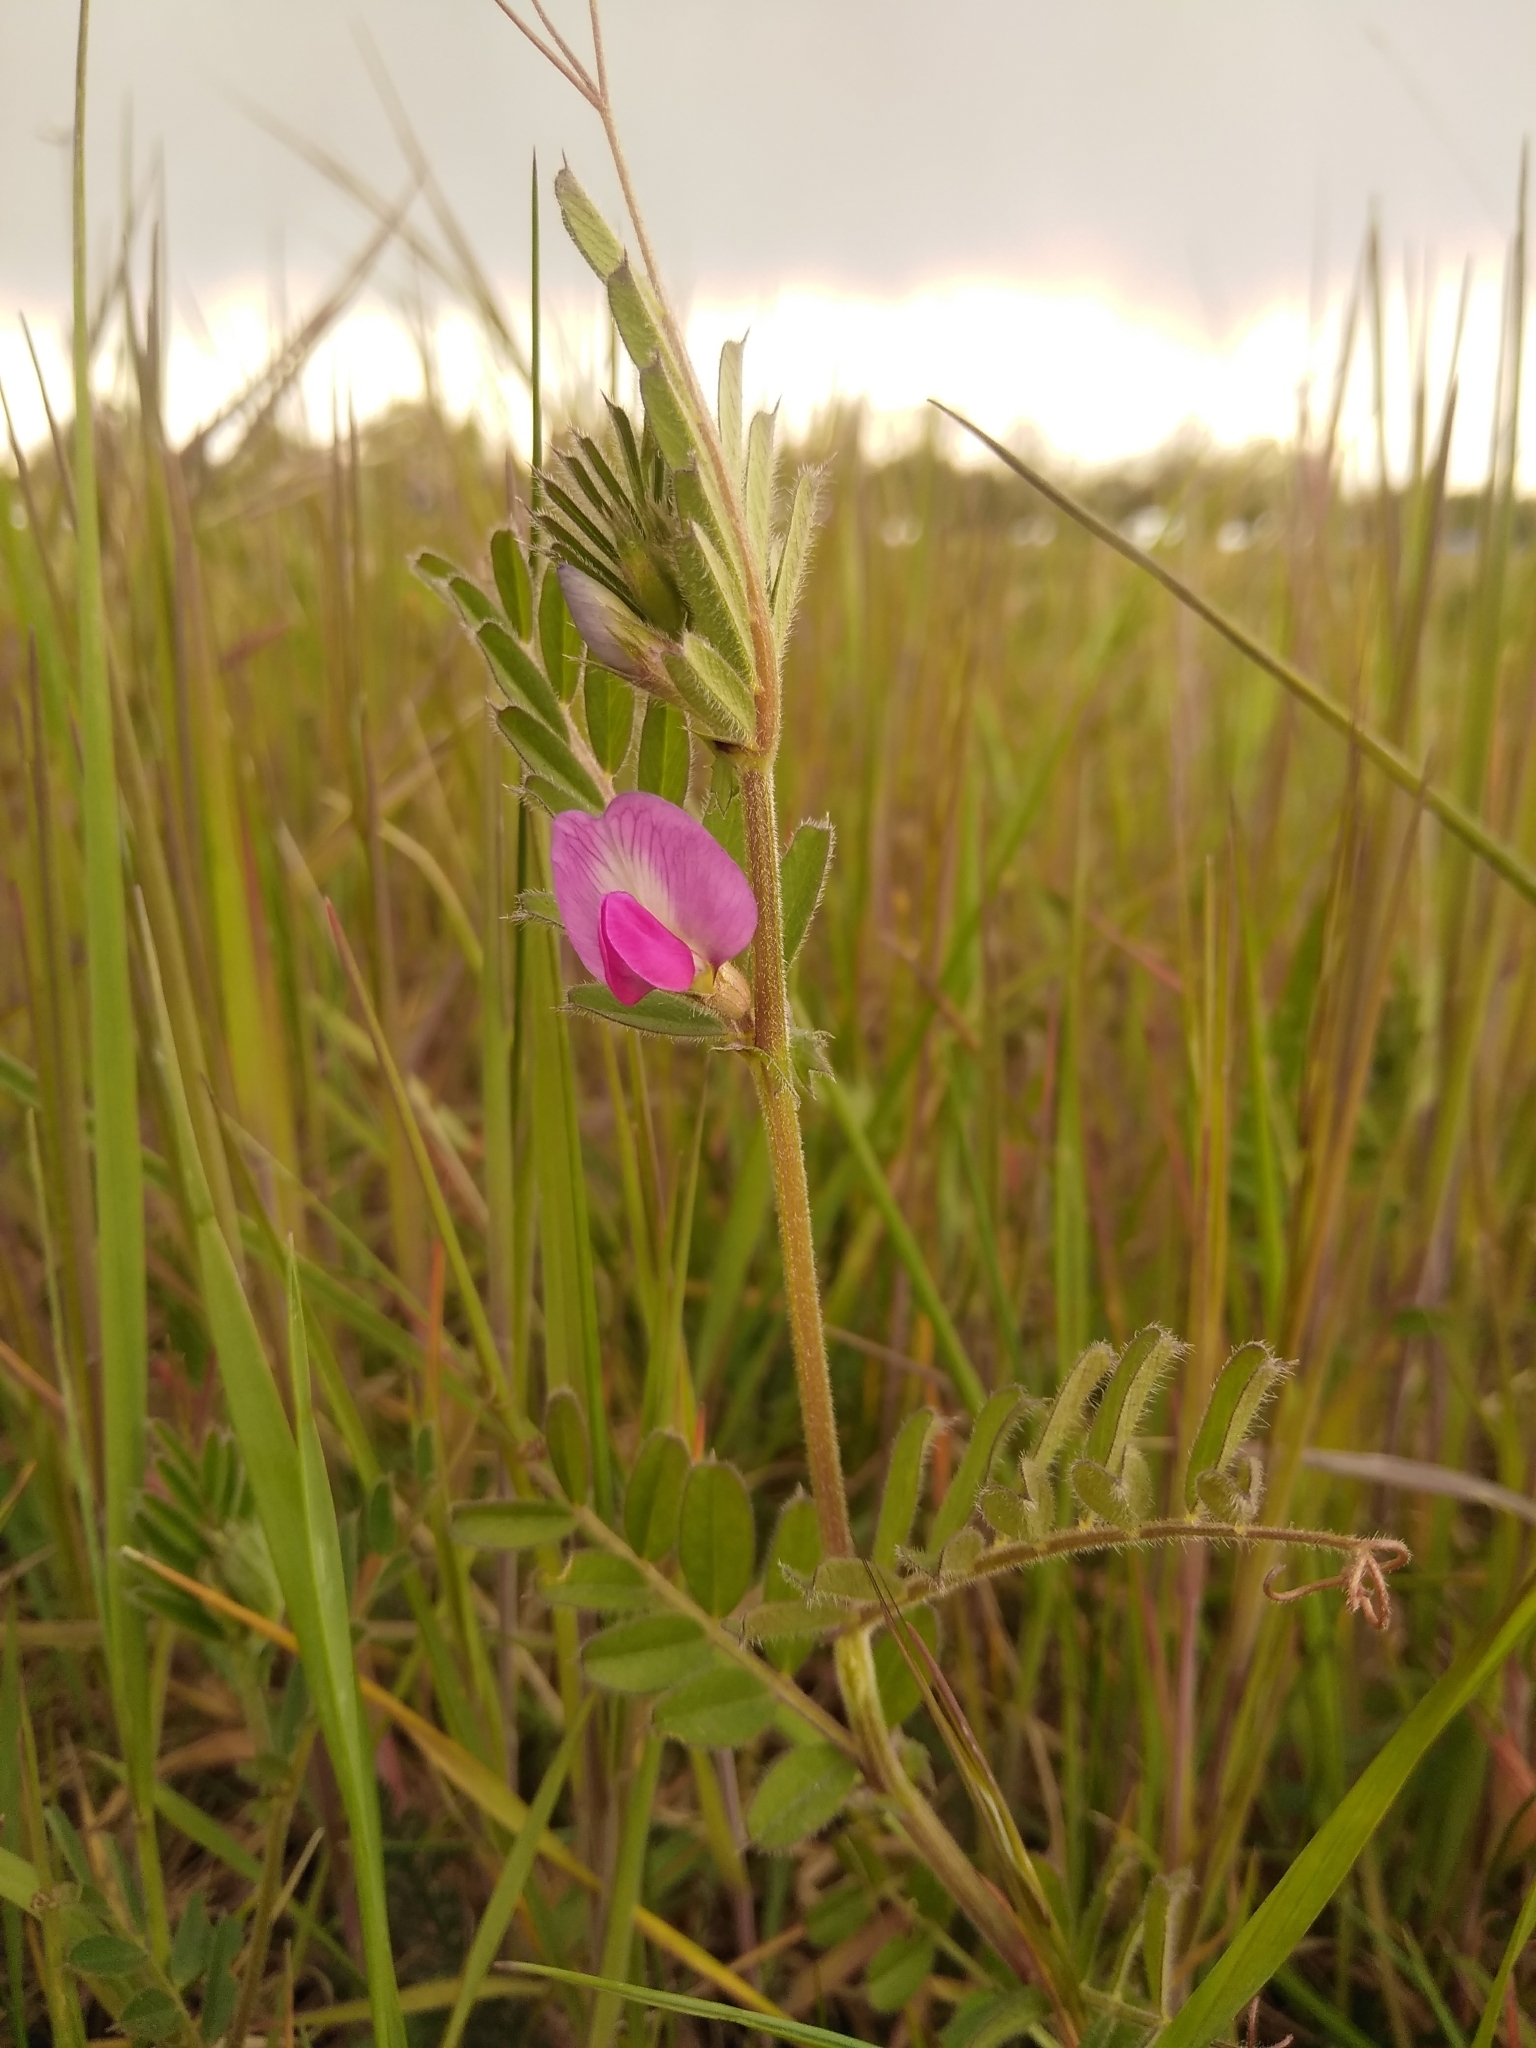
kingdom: Plantae
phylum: Tracheophyta
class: Magnoliopsida
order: Fabales
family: Fabaceae
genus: Vicia
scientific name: Vicia sativa
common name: Garden vetch
